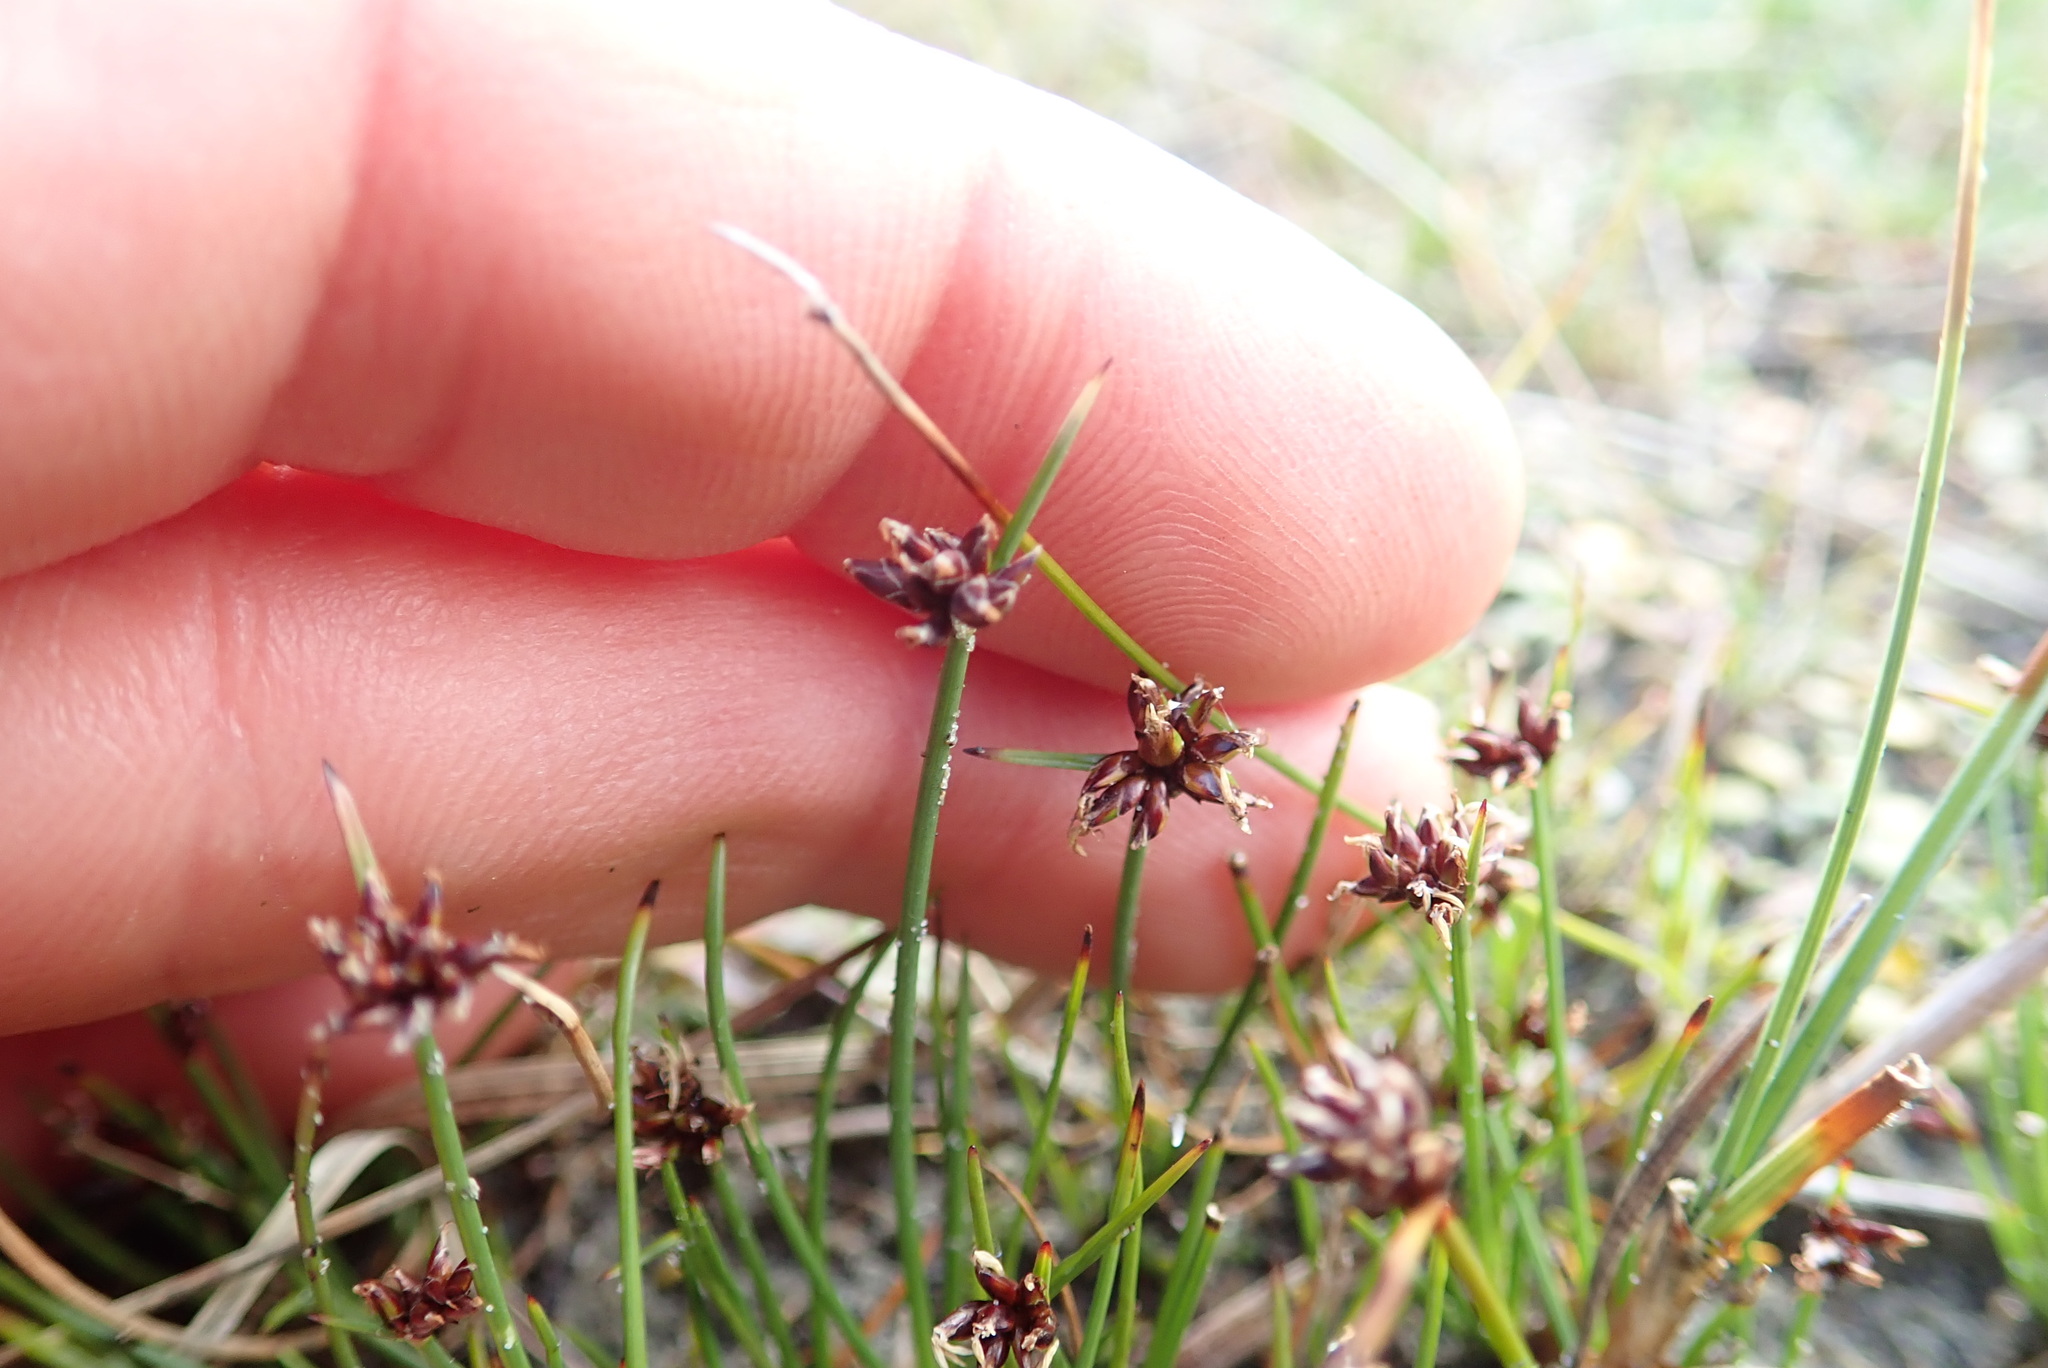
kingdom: Plantae
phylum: Tracheophyta
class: Liliopsida
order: Poales
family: Cyperaceae
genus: Schoenus
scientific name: Schoenus nitens
